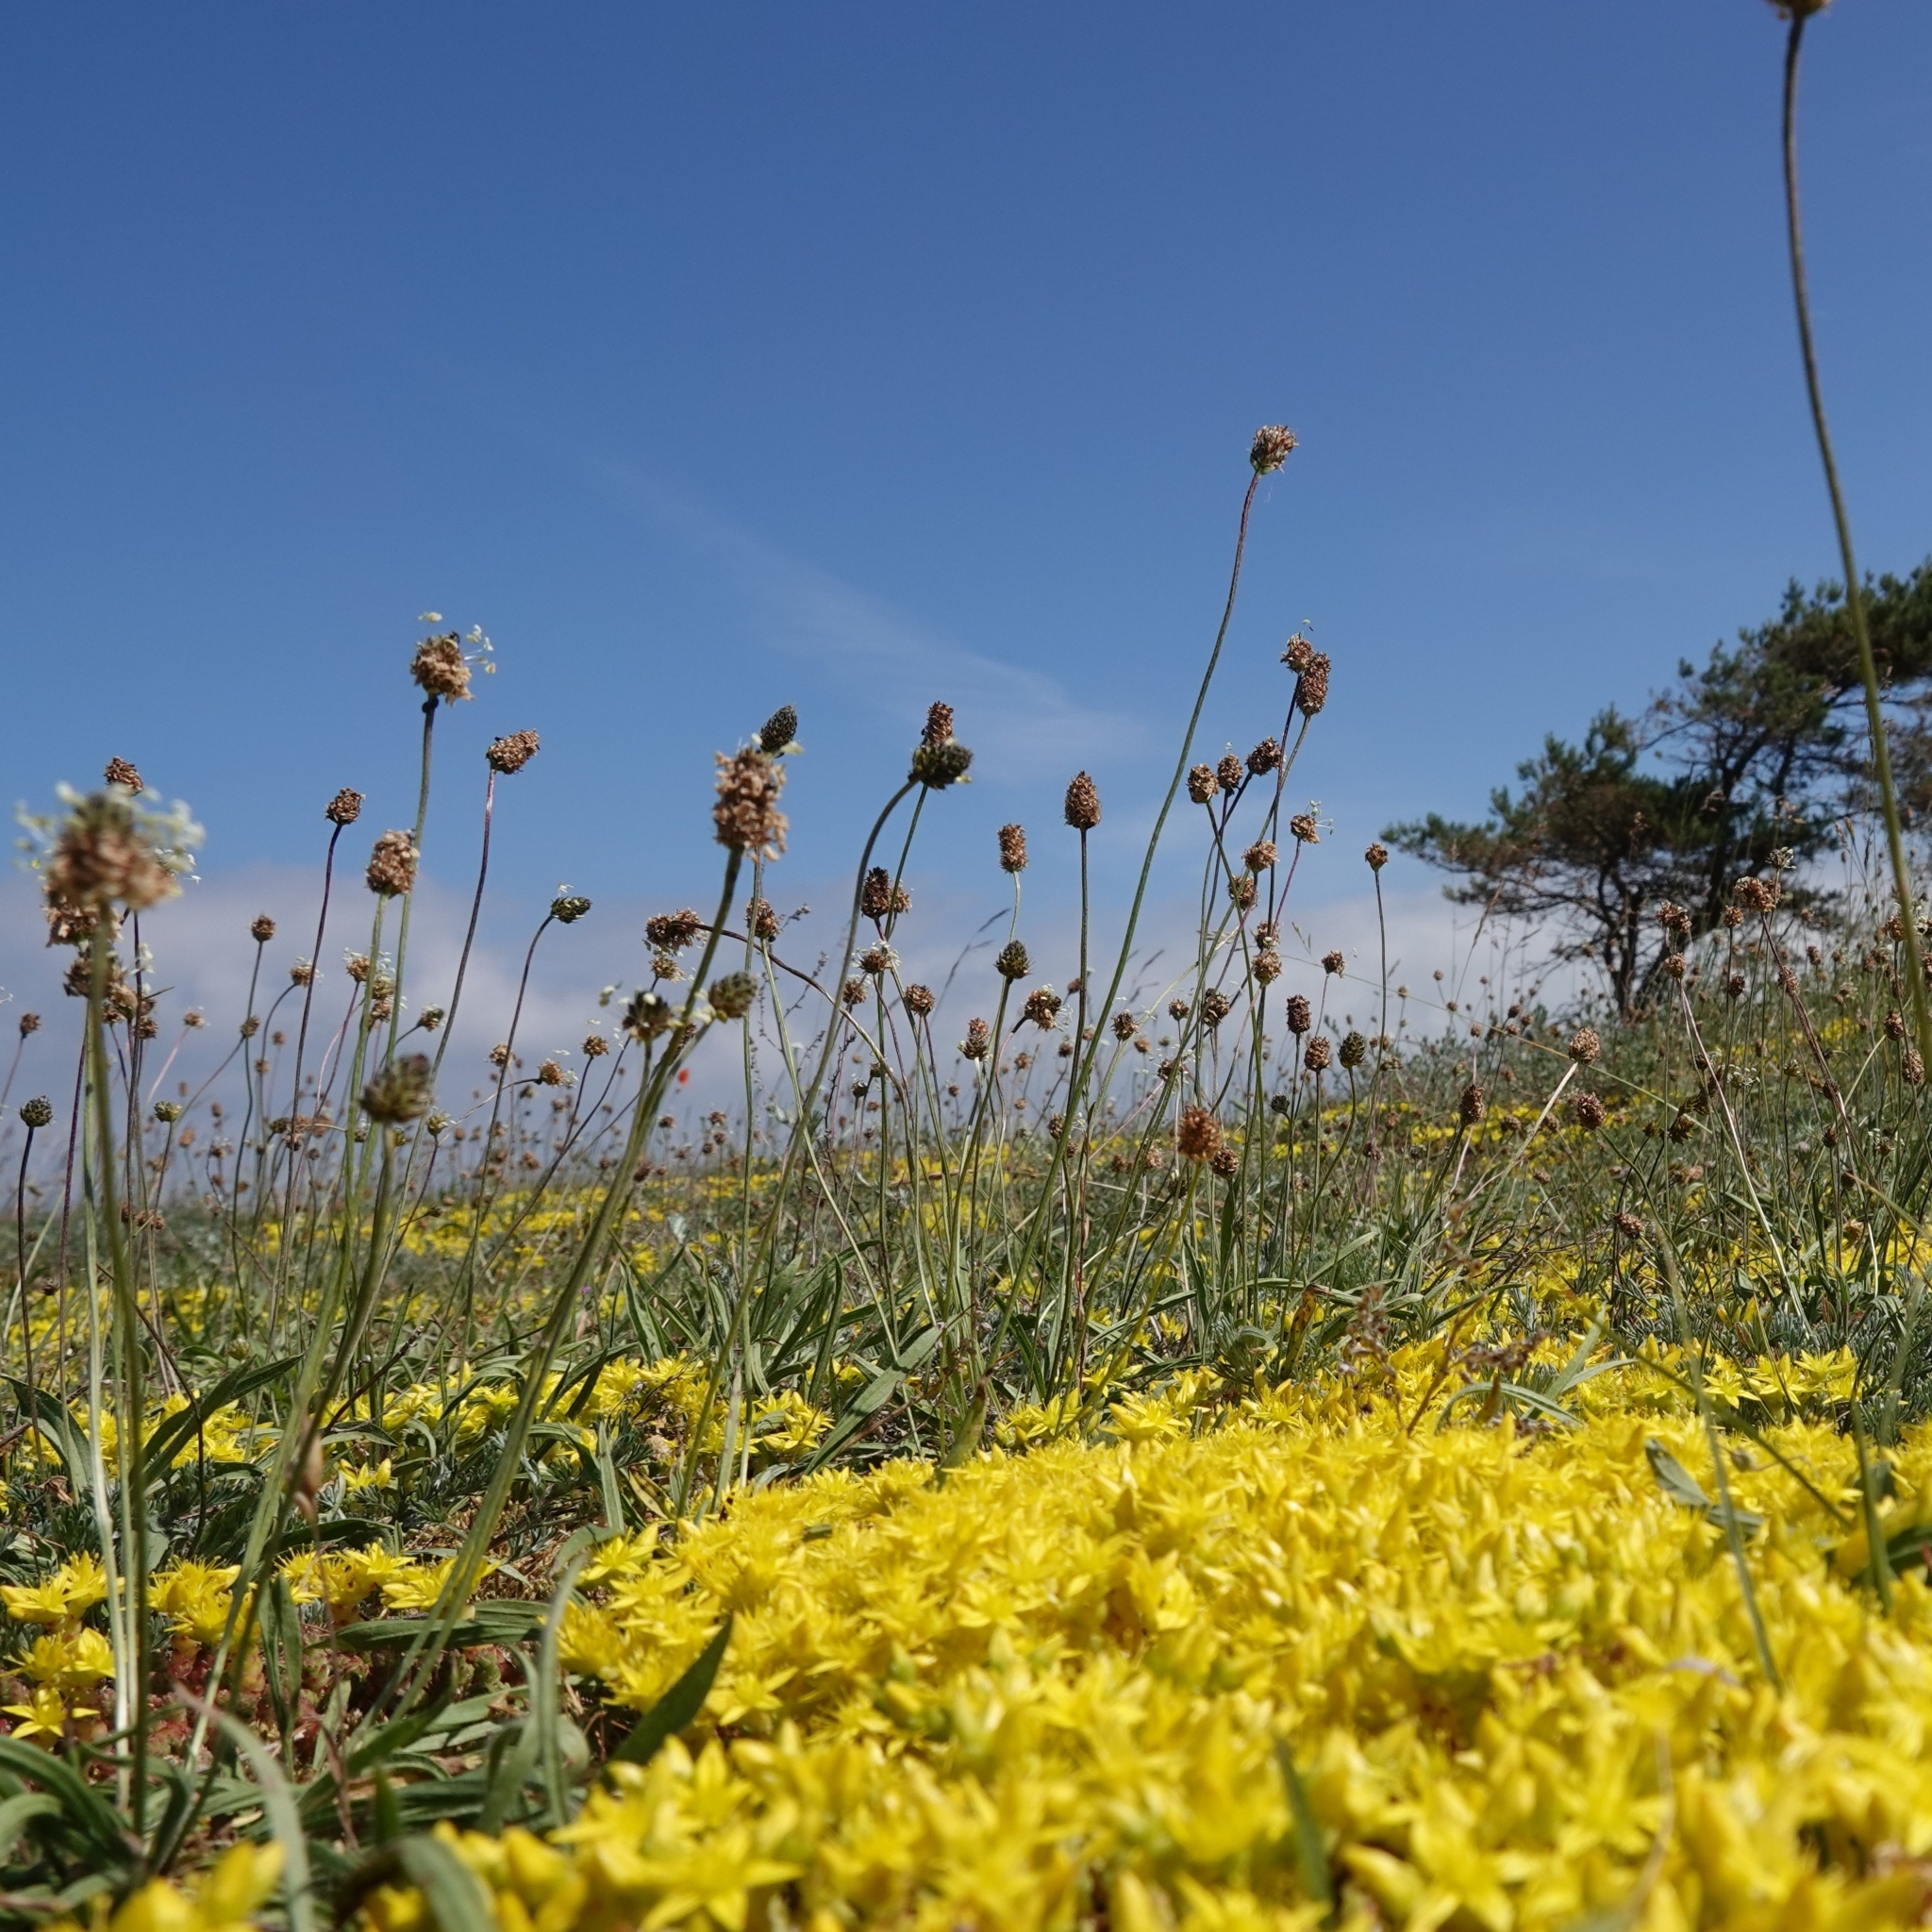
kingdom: Plantae
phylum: Tracheophyta
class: Magnoliopsida
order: Saxifragales
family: Crassulaceae
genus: Sedum
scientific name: Sedum acre
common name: Biting stonecrop
